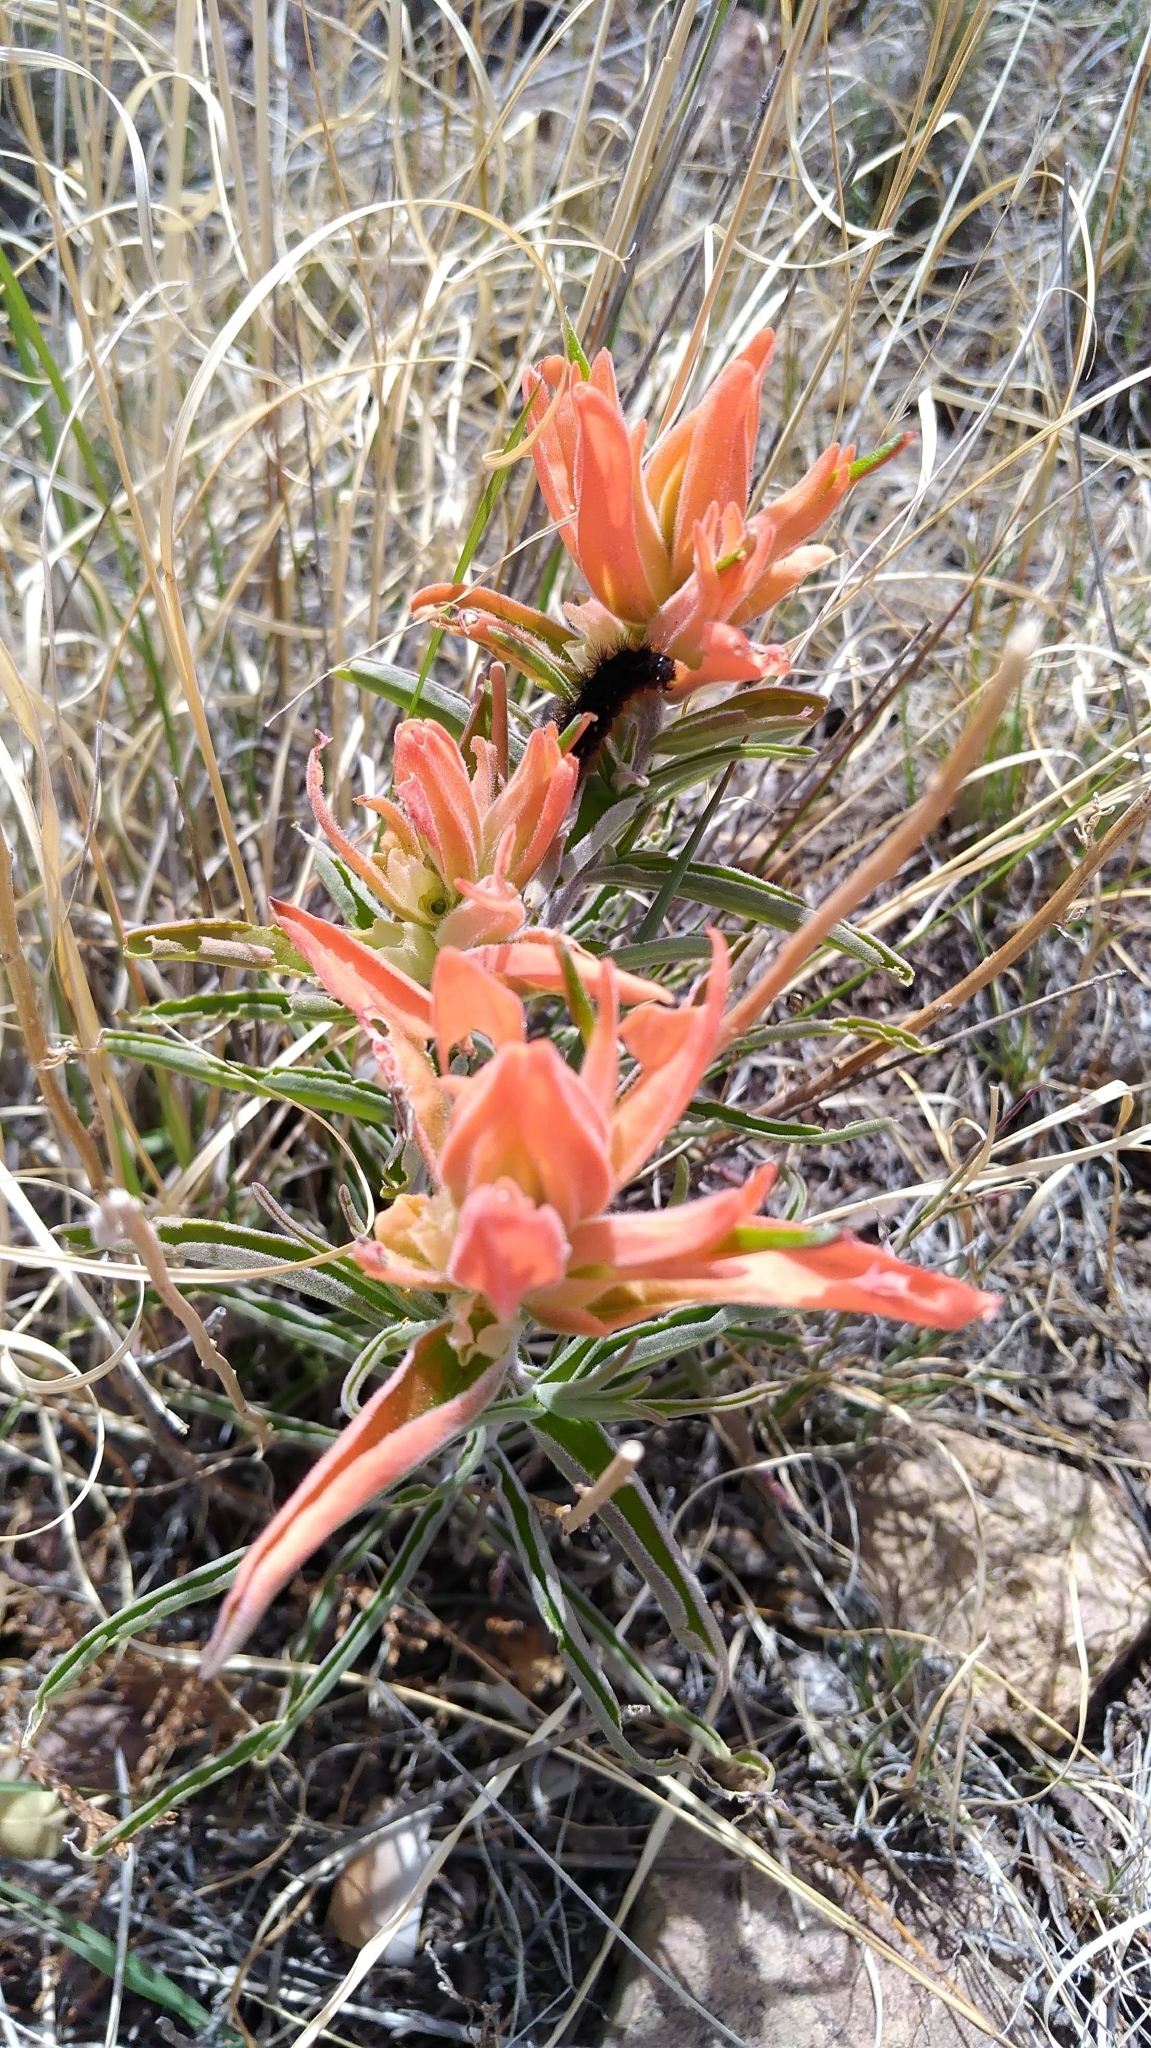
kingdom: Plantae
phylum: Tracheophyta
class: Magnoliopsida
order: Lamiales
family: Orobanchaceae
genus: Castilleja
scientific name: Castilleja integra
